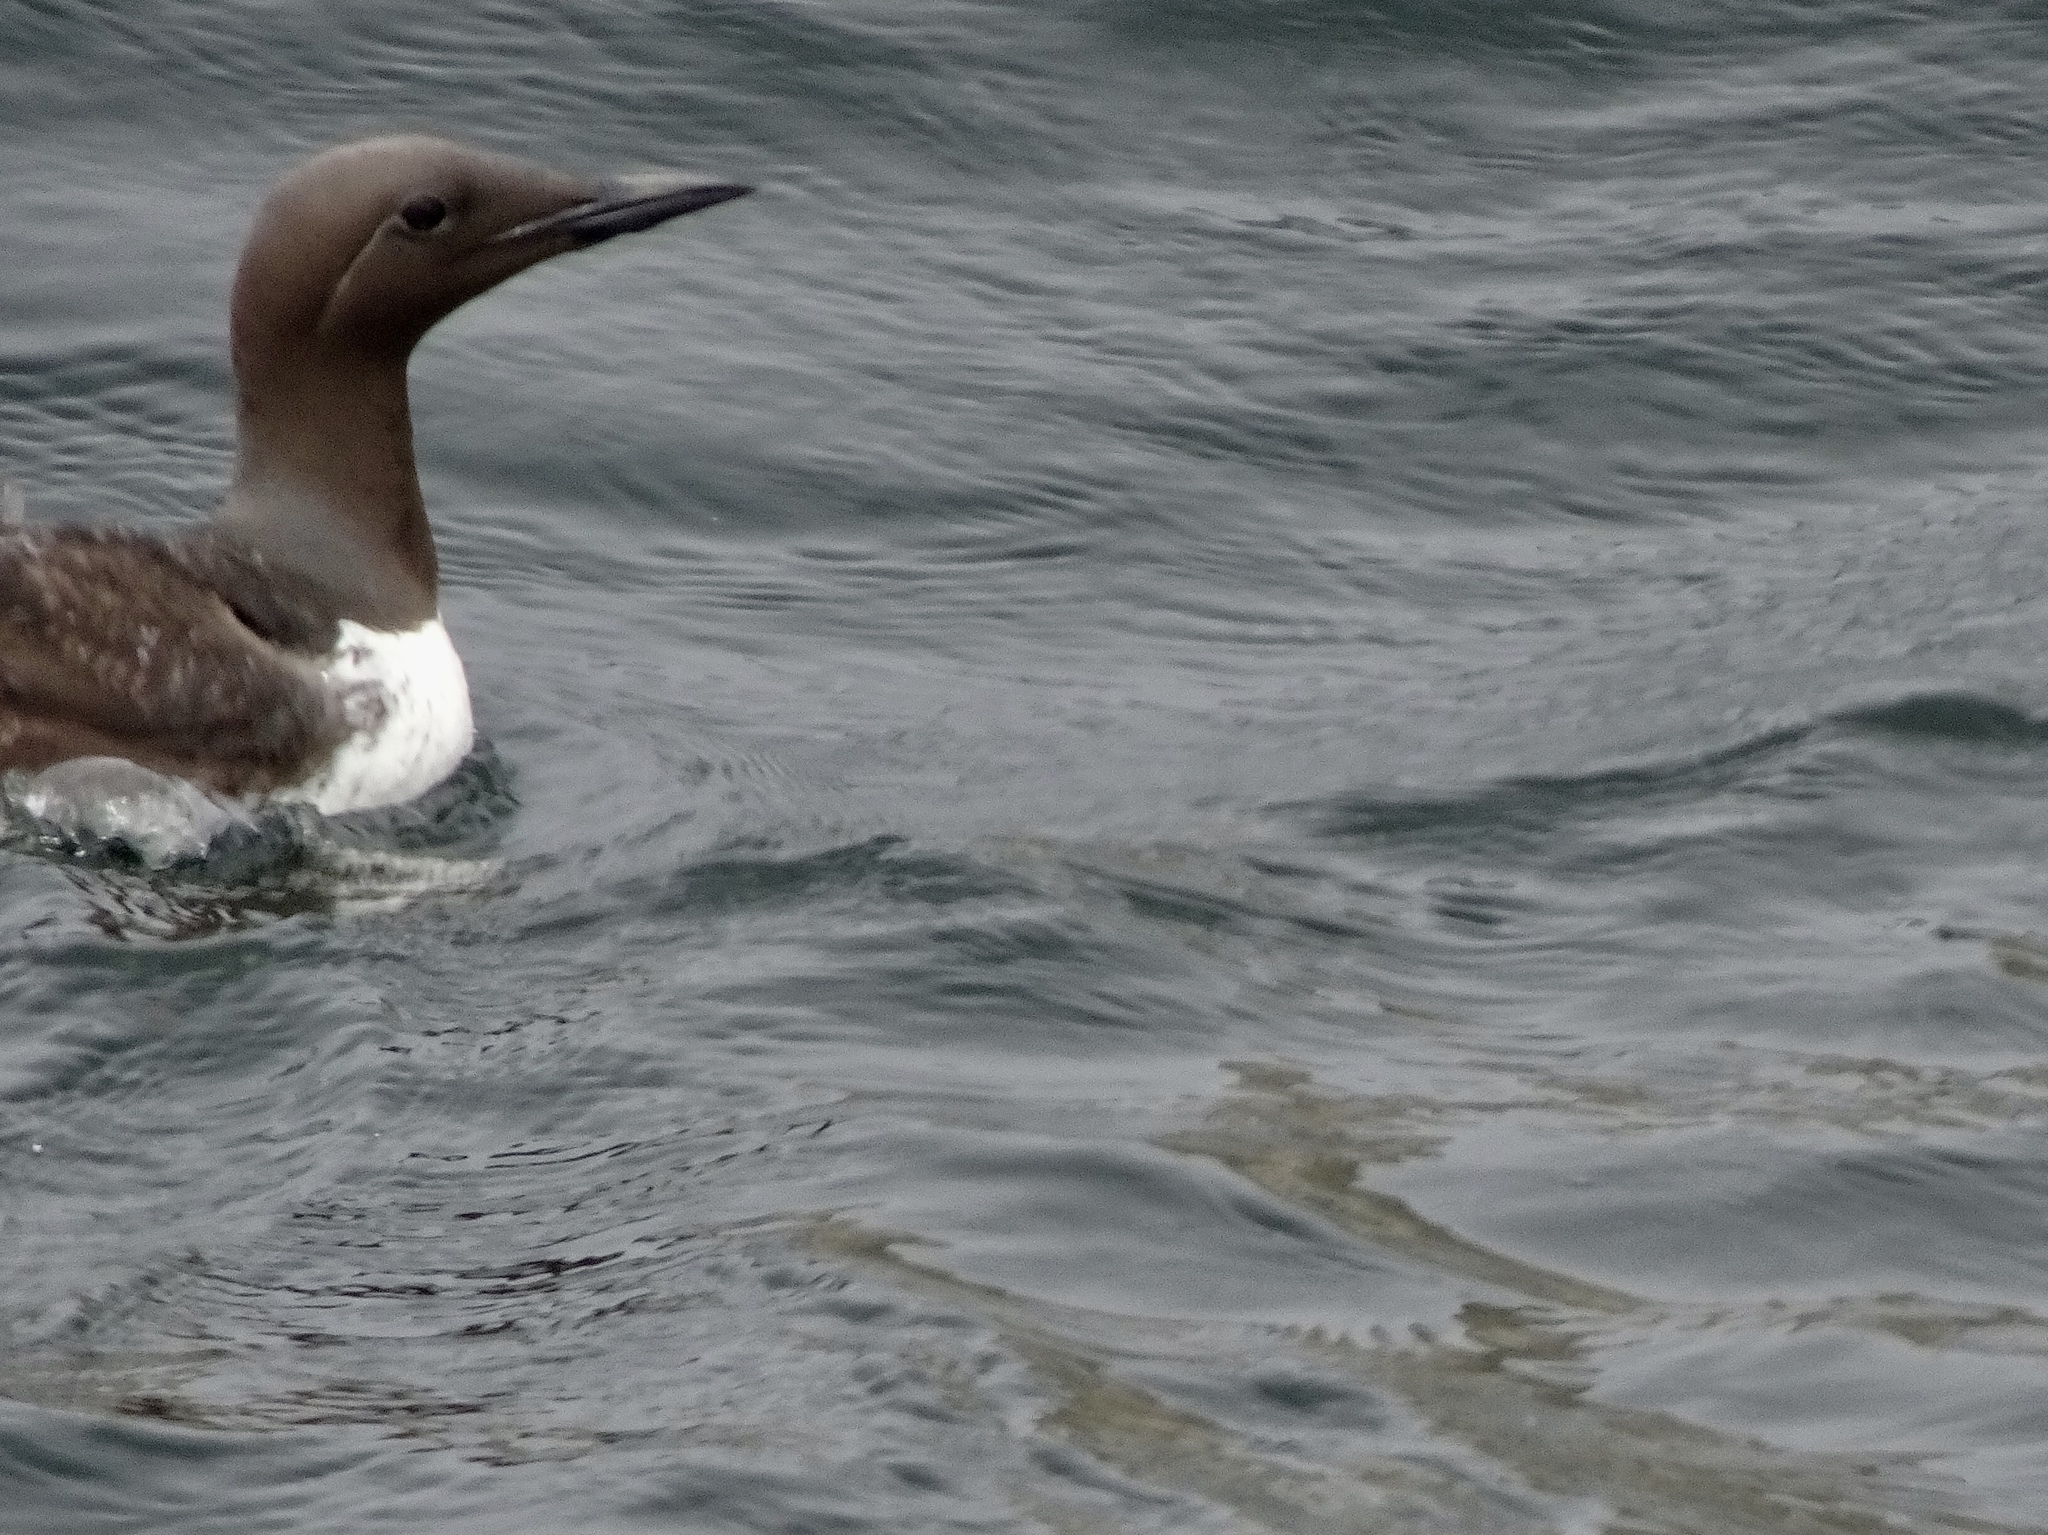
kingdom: Animalia
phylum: Chordata
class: Aves
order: Charadriiformes
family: Alcidae
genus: Uria
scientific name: Uria aalge
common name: Common murre
